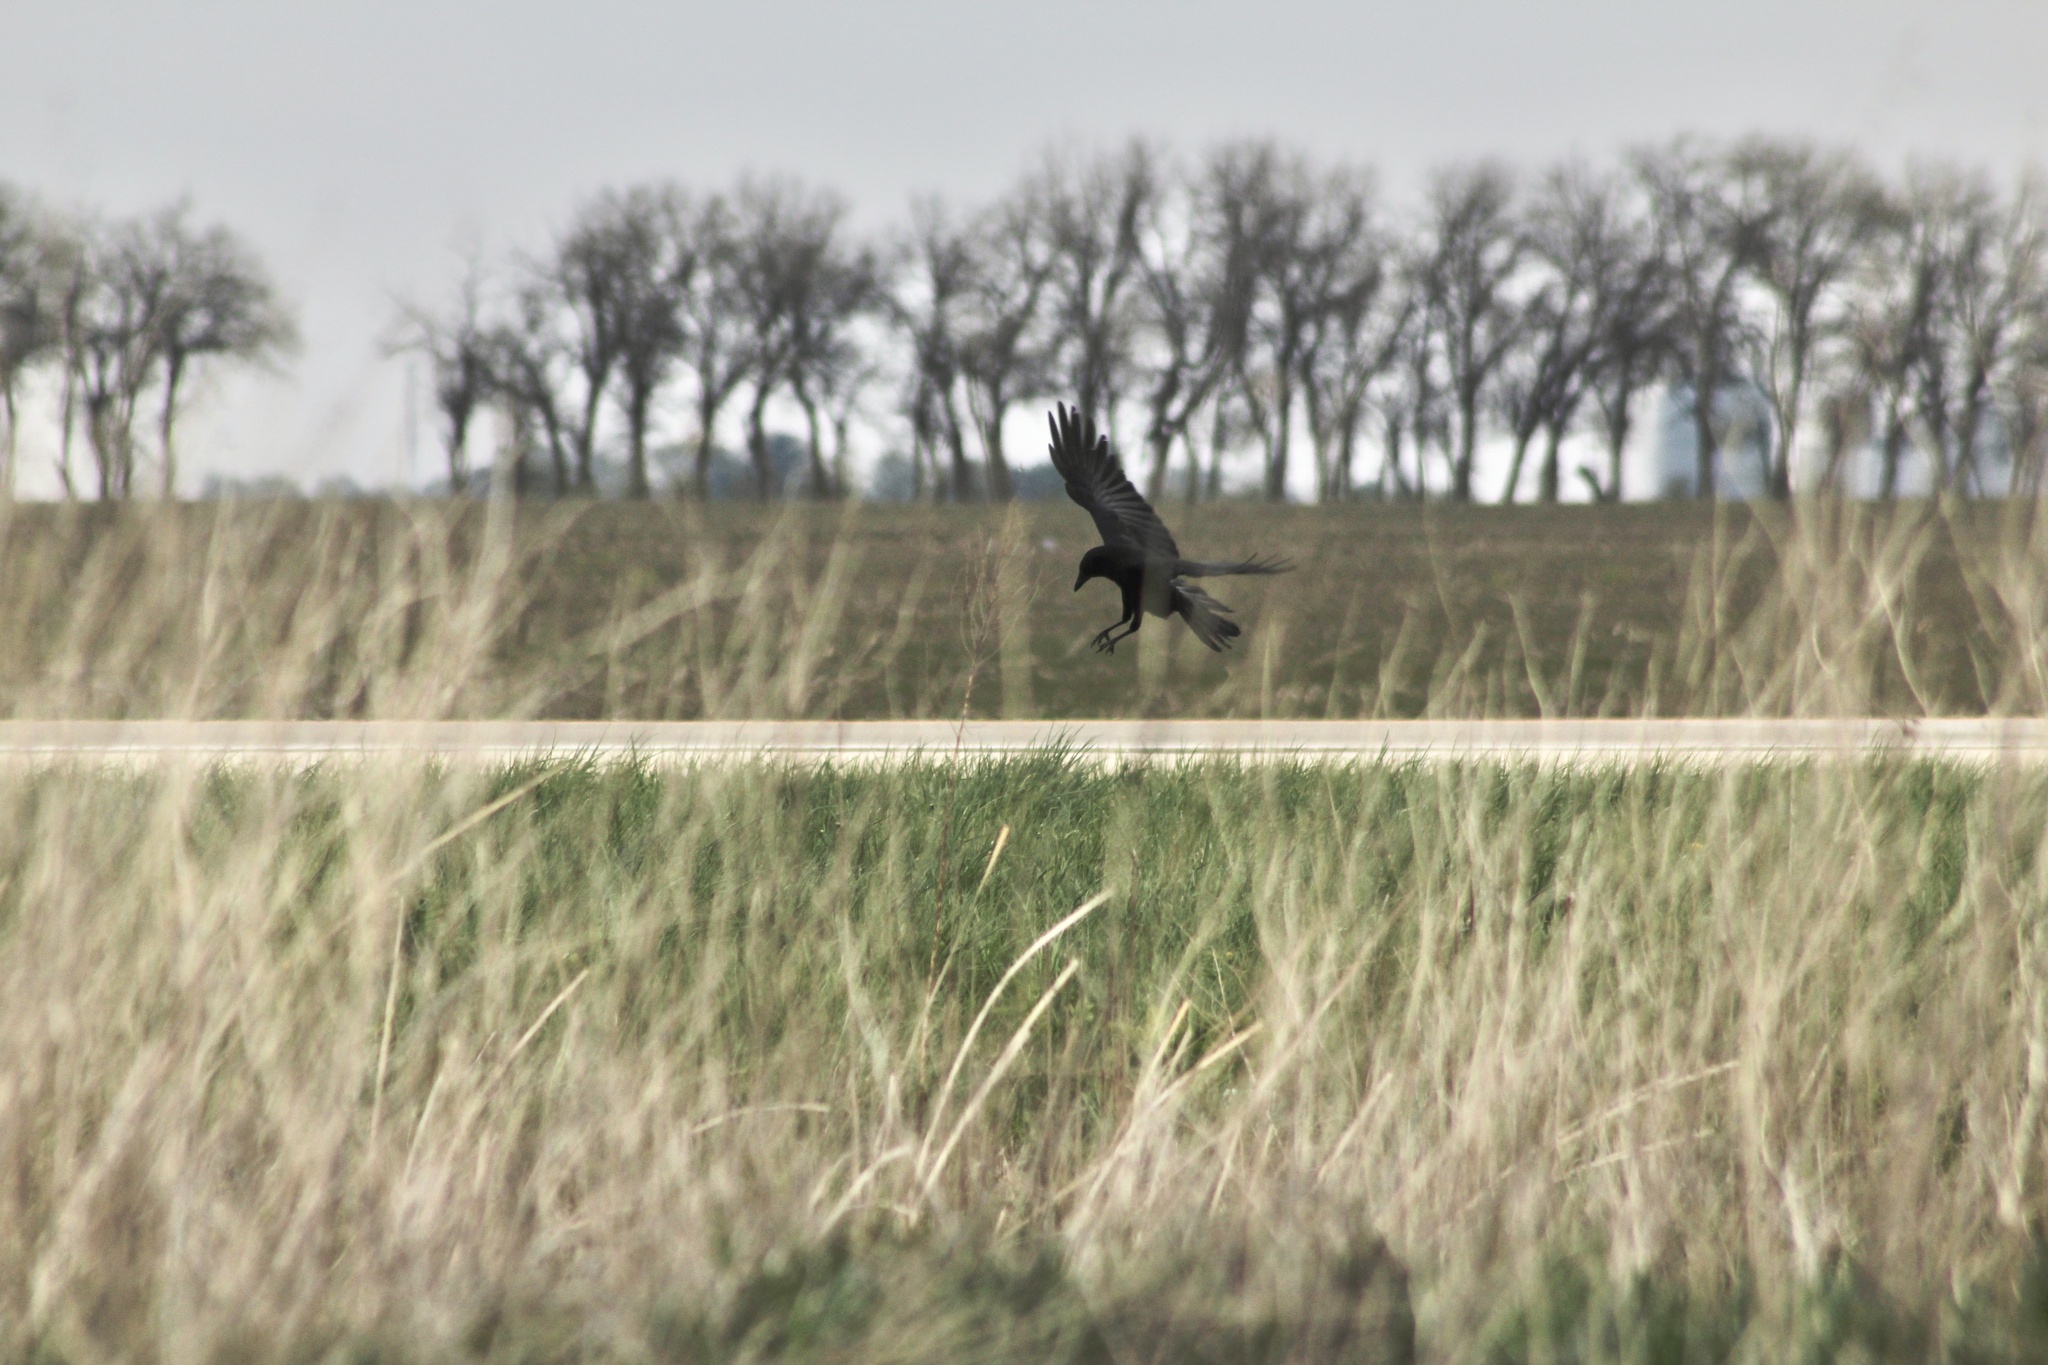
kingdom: Animalia
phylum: Chordata
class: Aves
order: Passeriformes
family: Corvidae
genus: Corvus
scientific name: Corvus brachyrhynchos
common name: American crow
